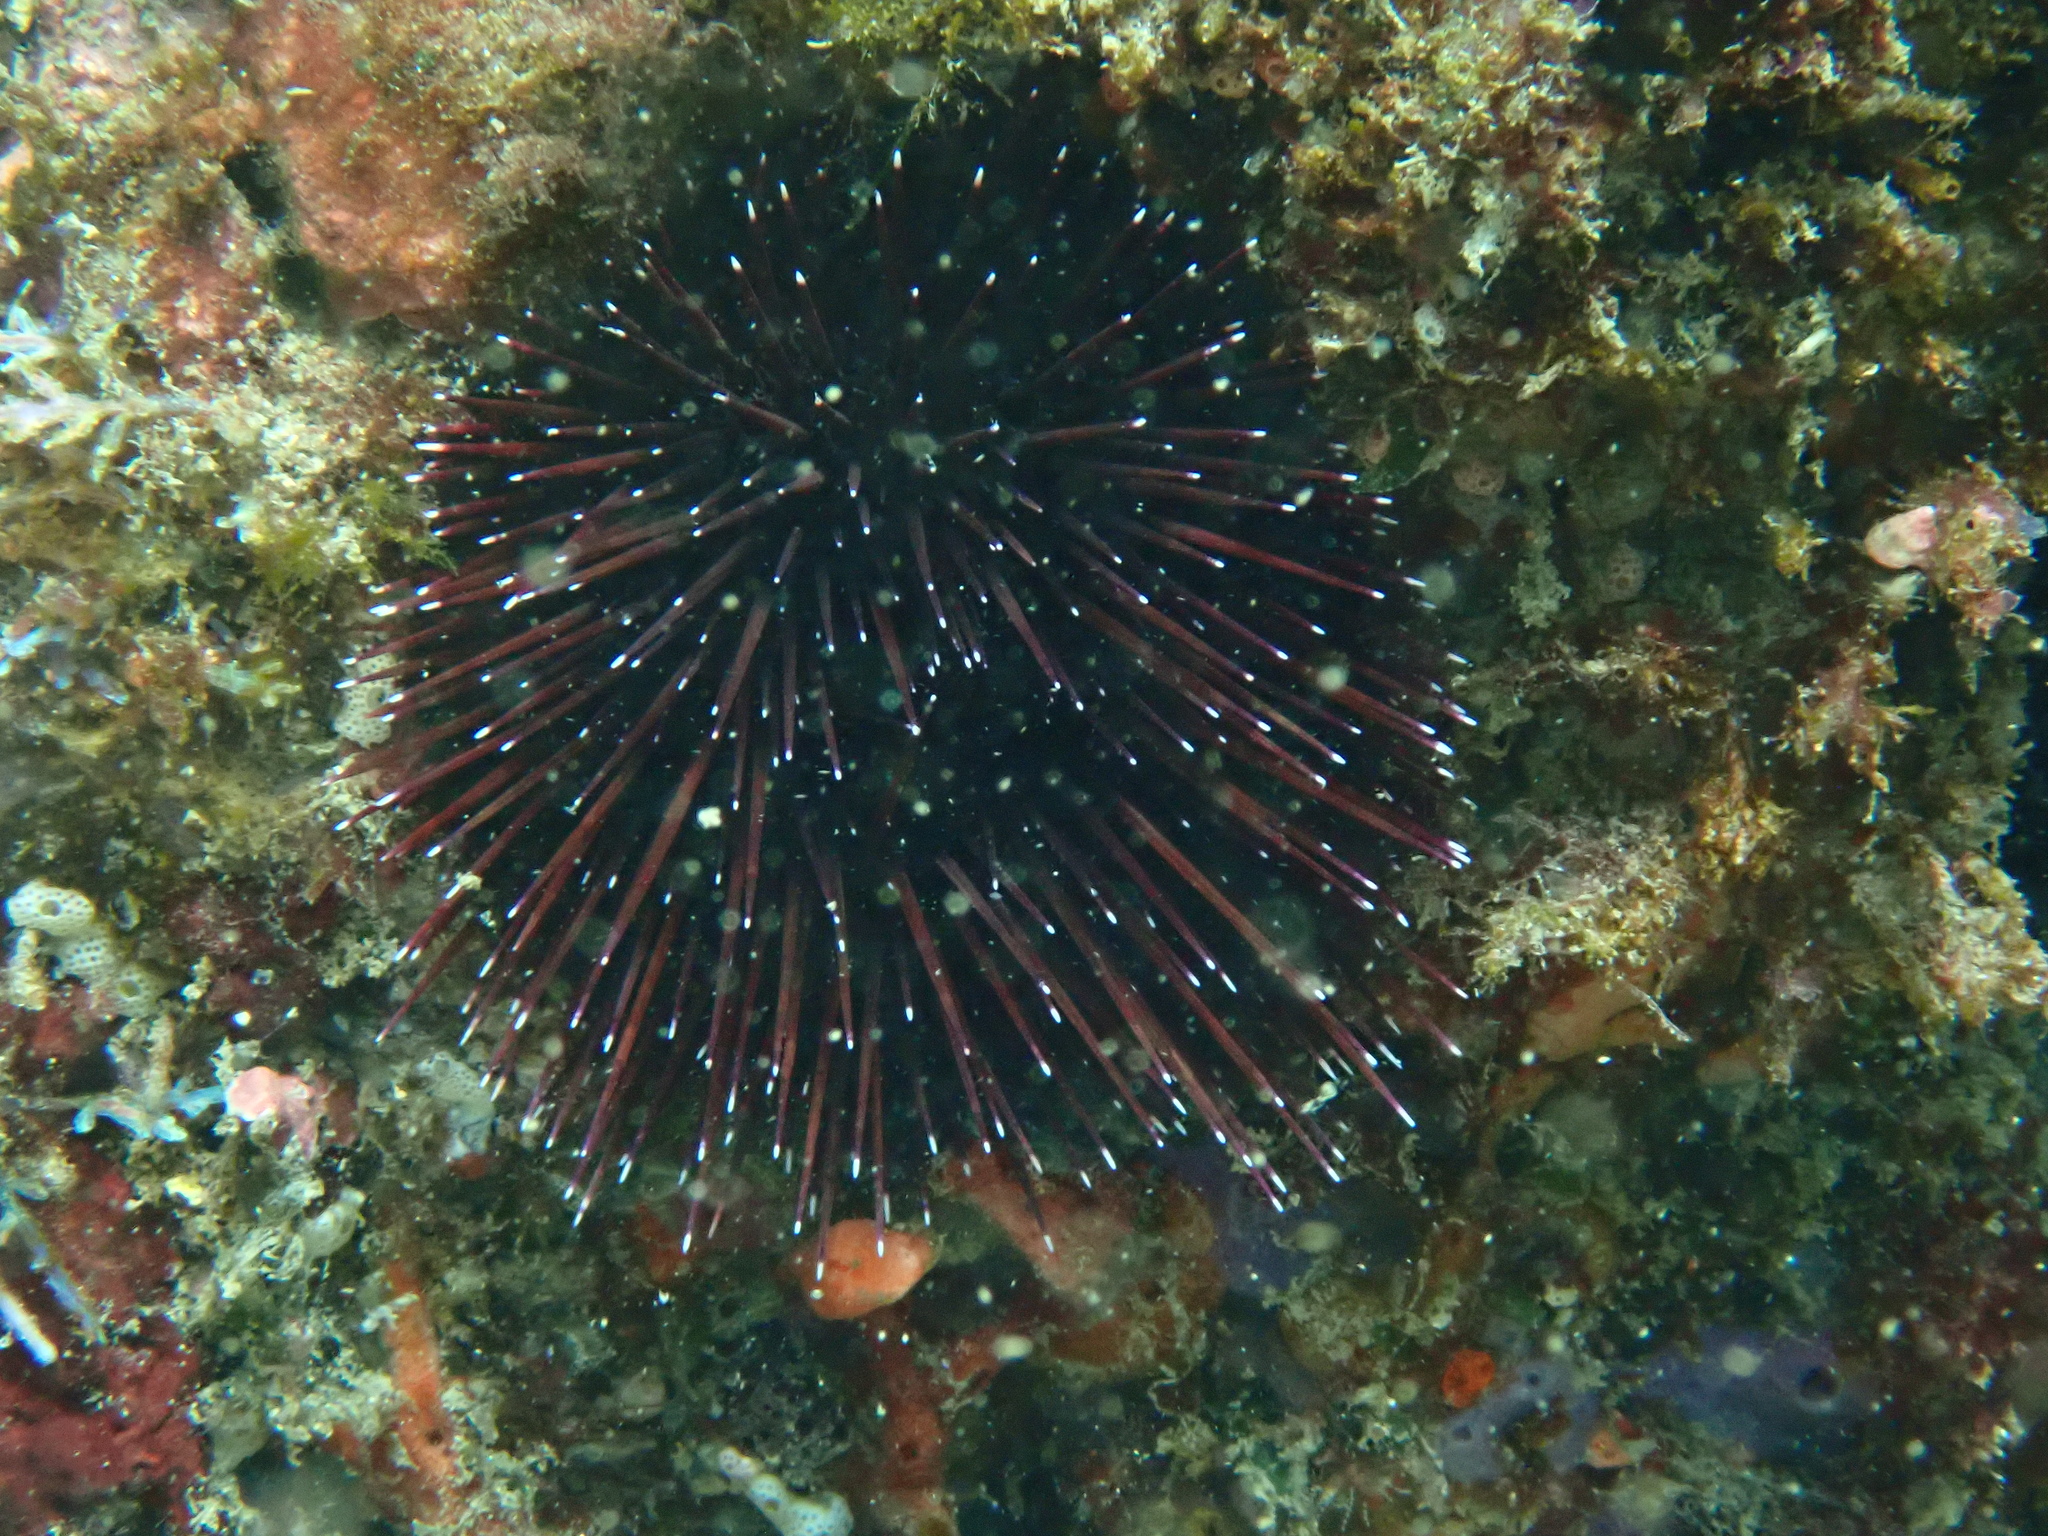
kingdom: Animalia
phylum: Echinodermata
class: Echinoidea
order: Camarodonta
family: Echinometridae
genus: Echinostrephus
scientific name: Echinostrephus aciculatus
